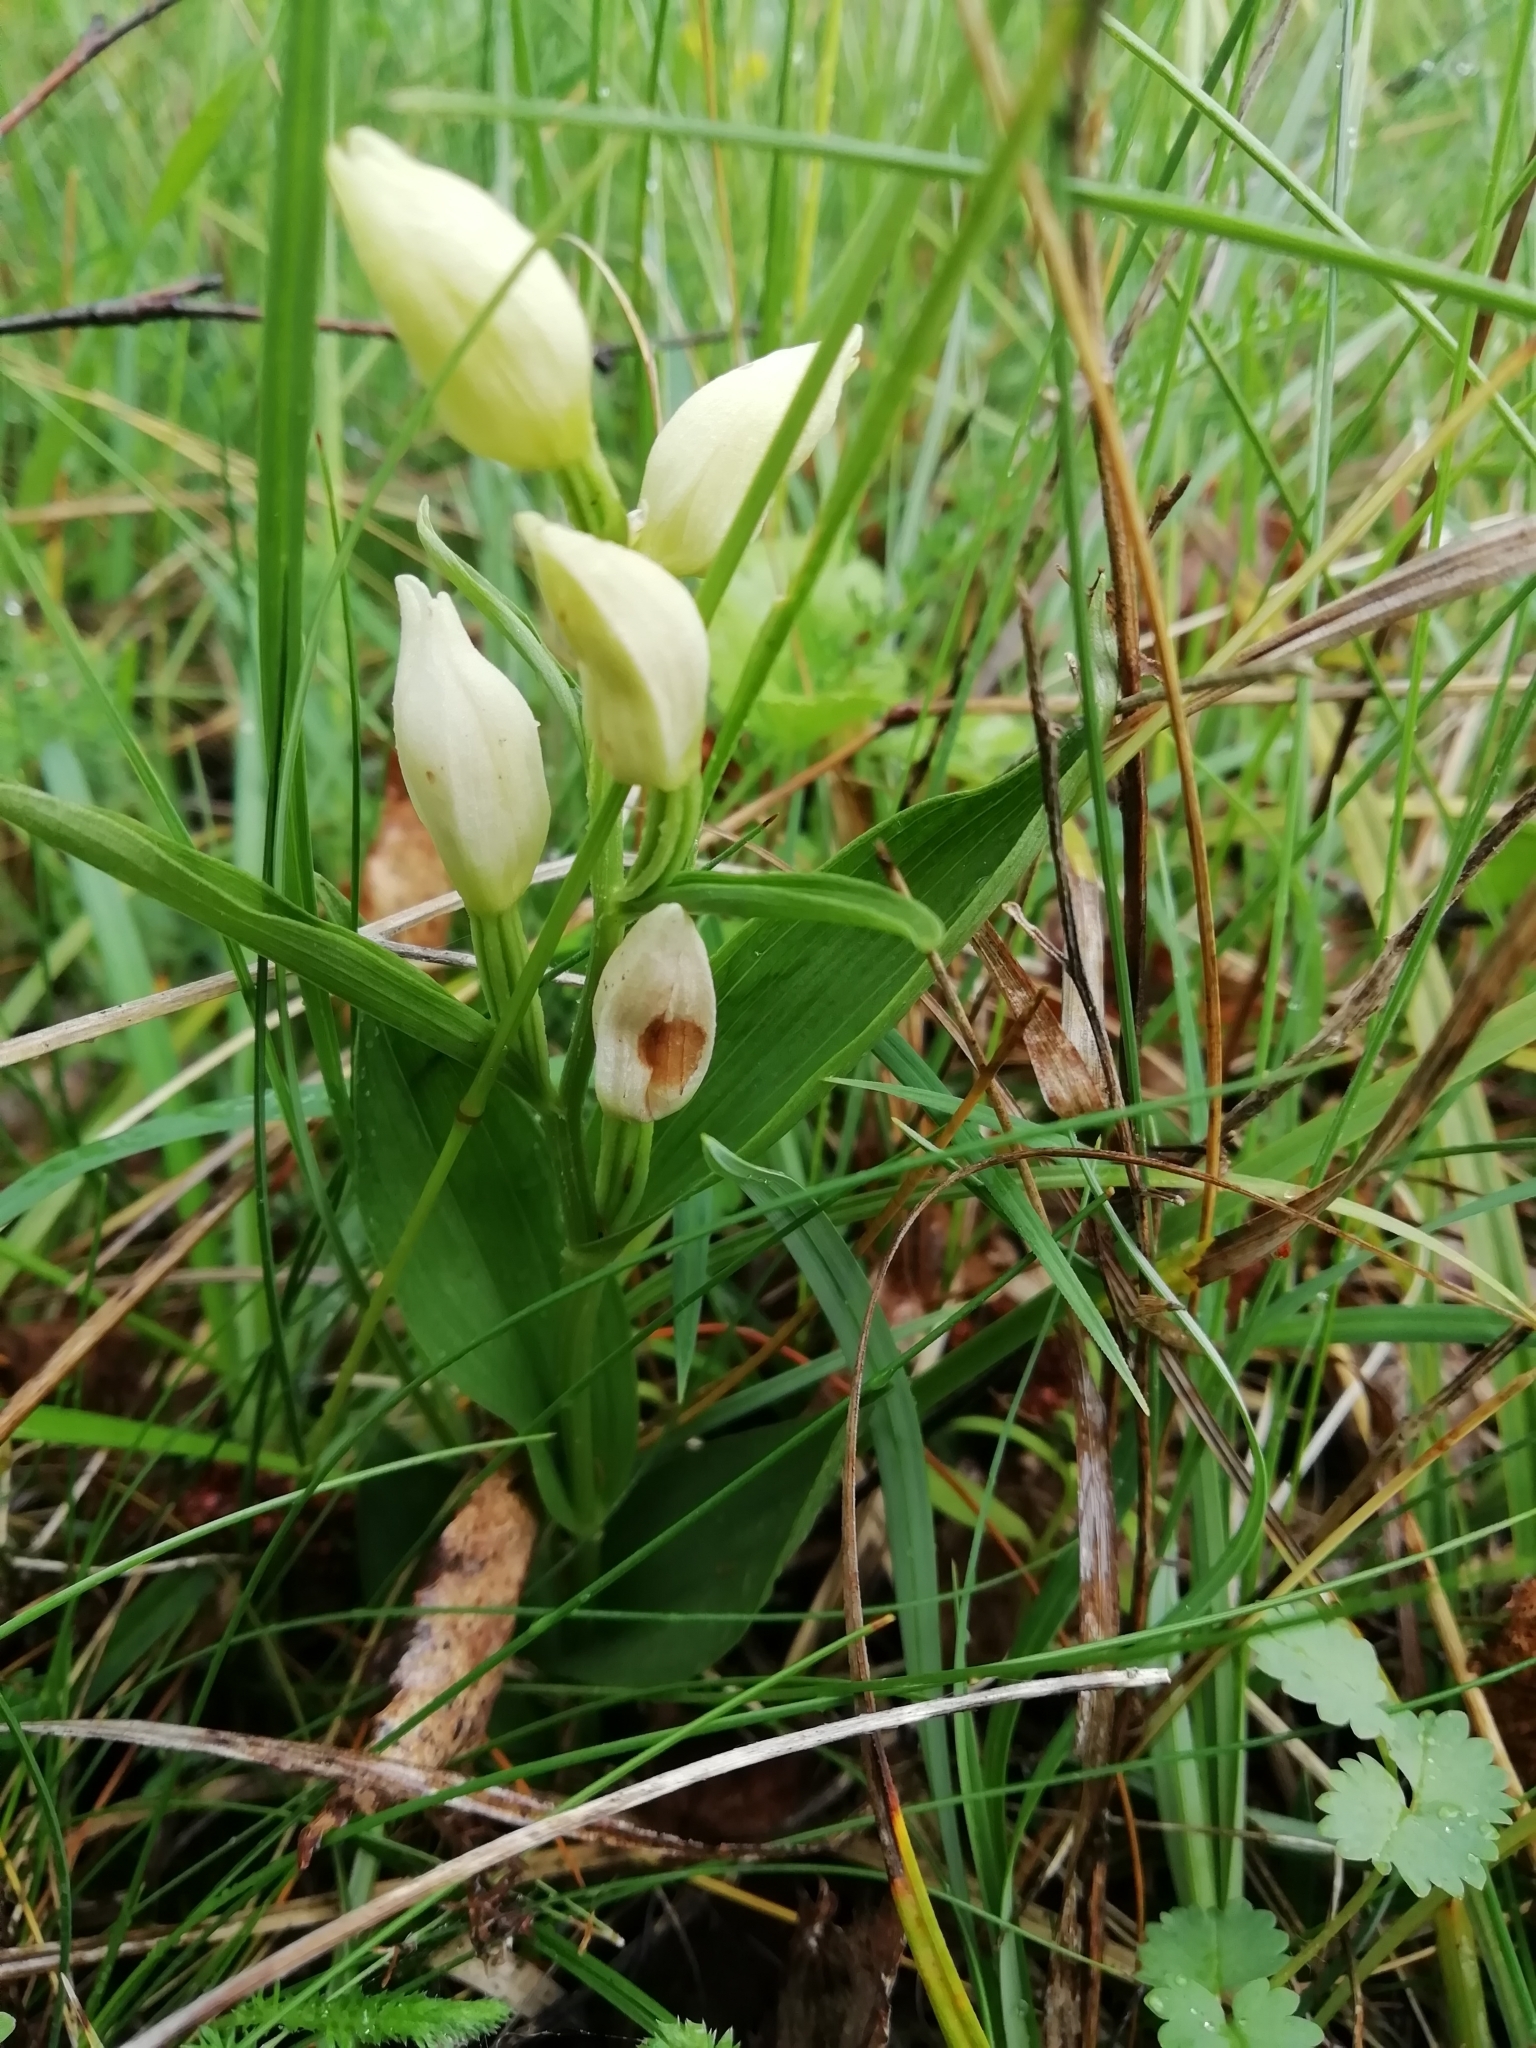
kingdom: Plantae
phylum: Tracheophyta
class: Liliopsida
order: Asparagales
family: Orchidaceae
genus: Cephalanthera
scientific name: Cephalanthera damasonium
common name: White helleborine
